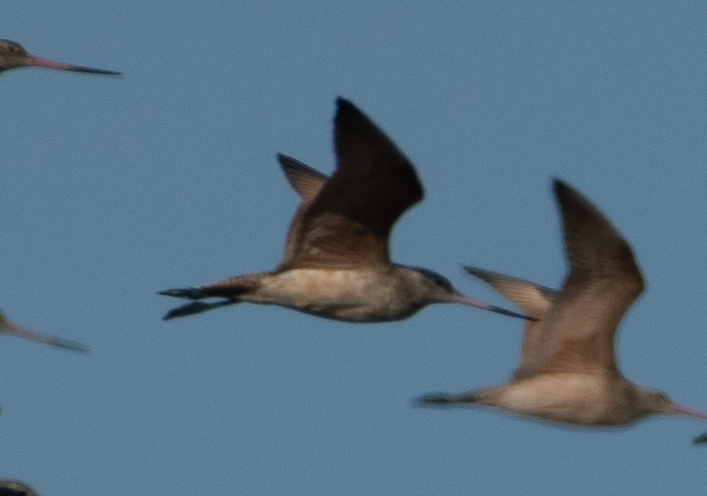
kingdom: Animalia
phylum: Chordata
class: Aves
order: Charadriiformes
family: Scolopacidae
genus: Limosa
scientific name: Limosa fedoa
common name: Marbled godwit
